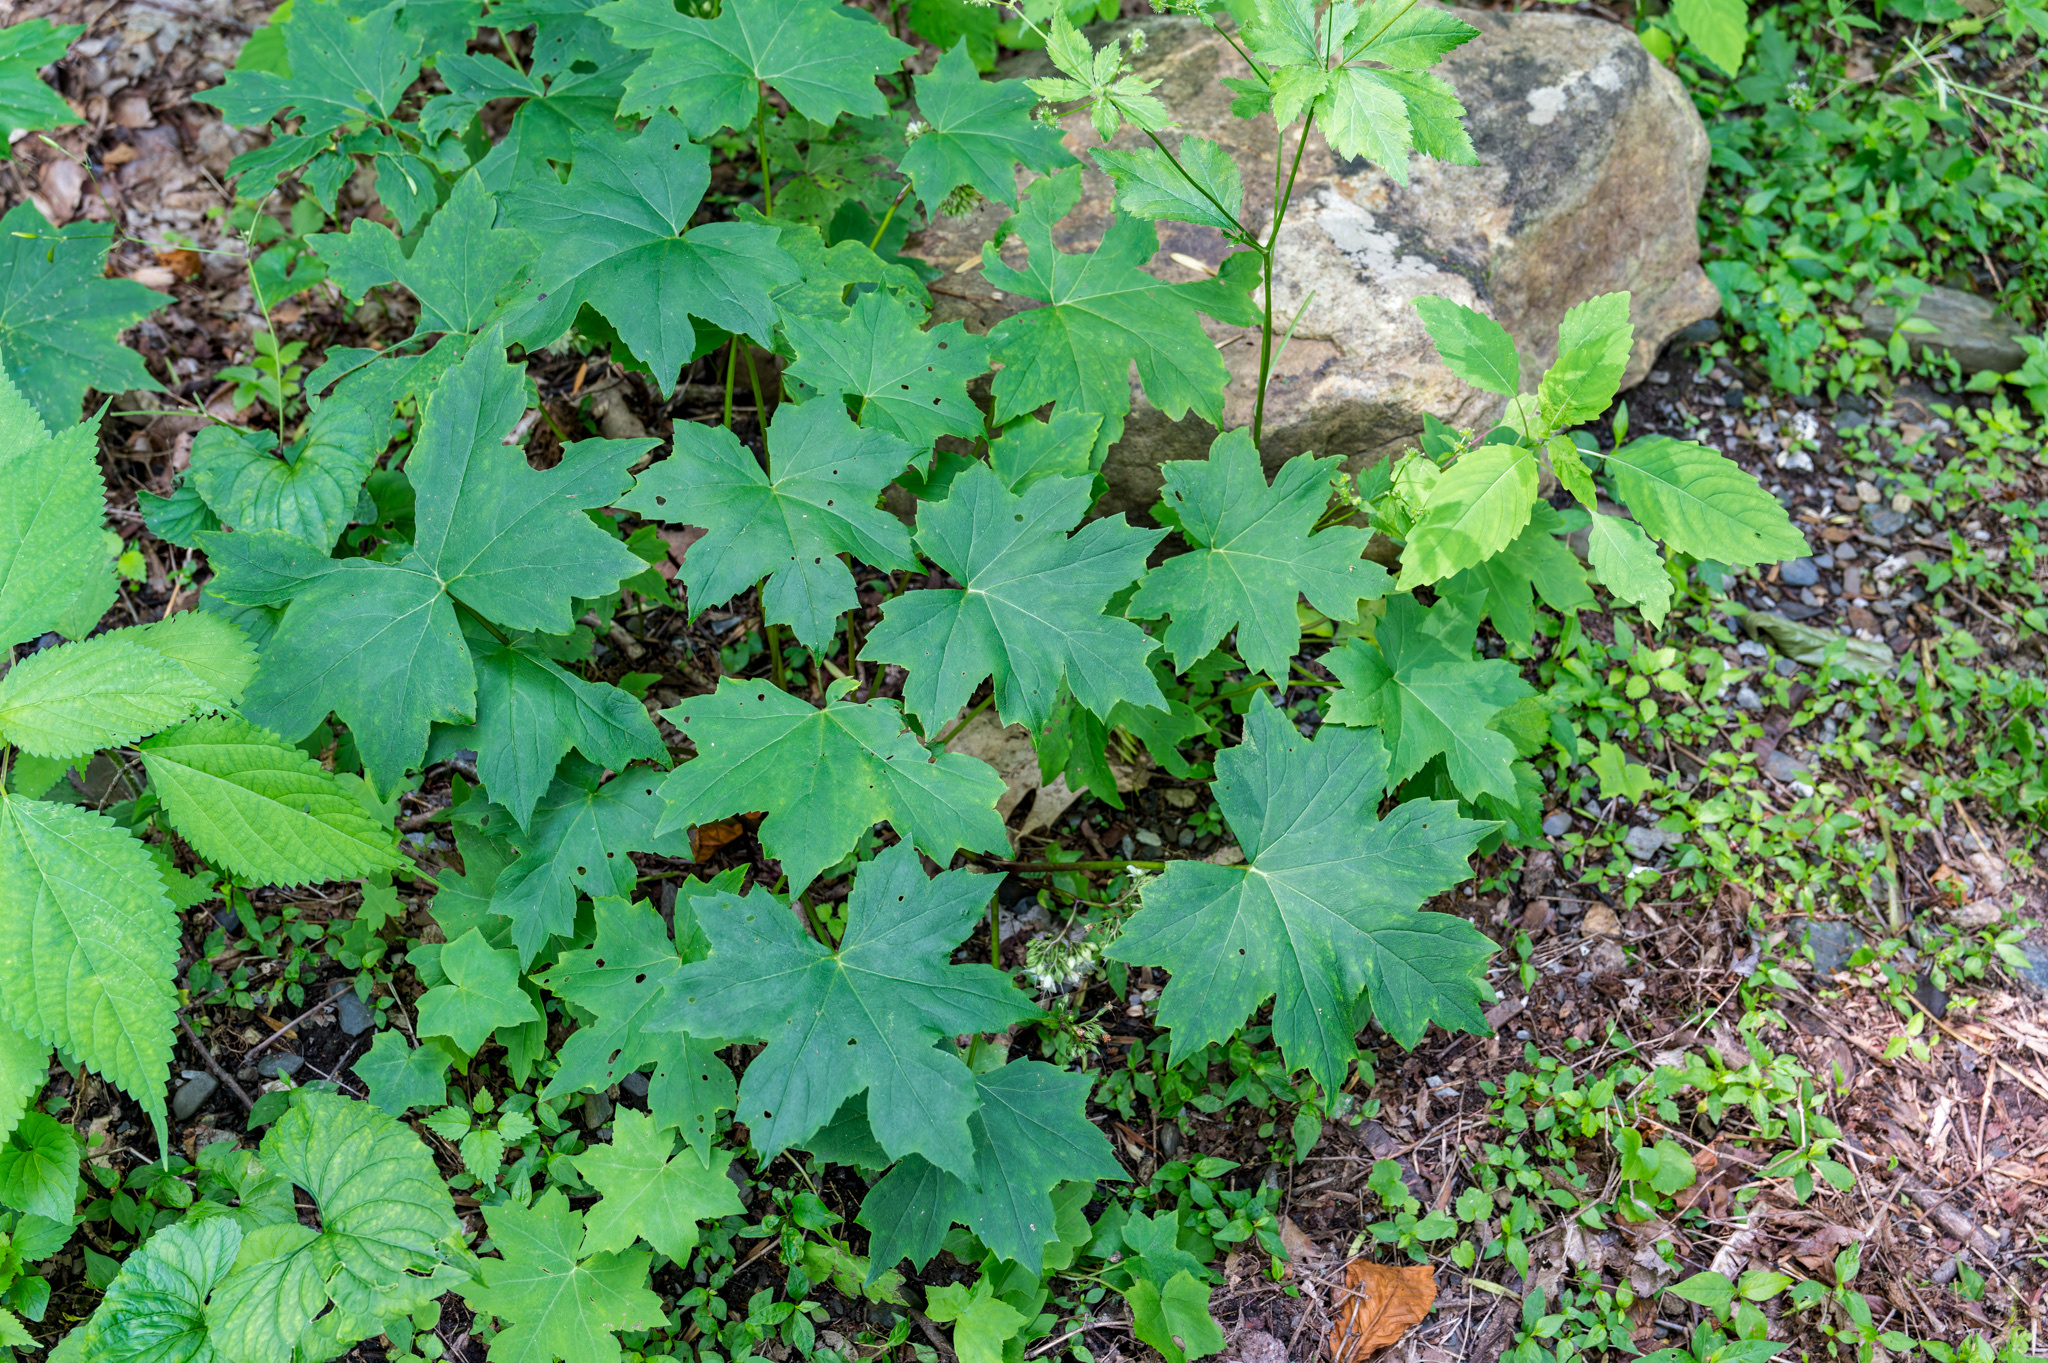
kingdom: Plantae
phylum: Tracheophyta
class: Magnoliopsida
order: Boraginales
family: Hydrophyllaceae
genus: Hydrophyllum
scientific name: Hydrophyllum virginianum
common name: Virginia waterleaf
